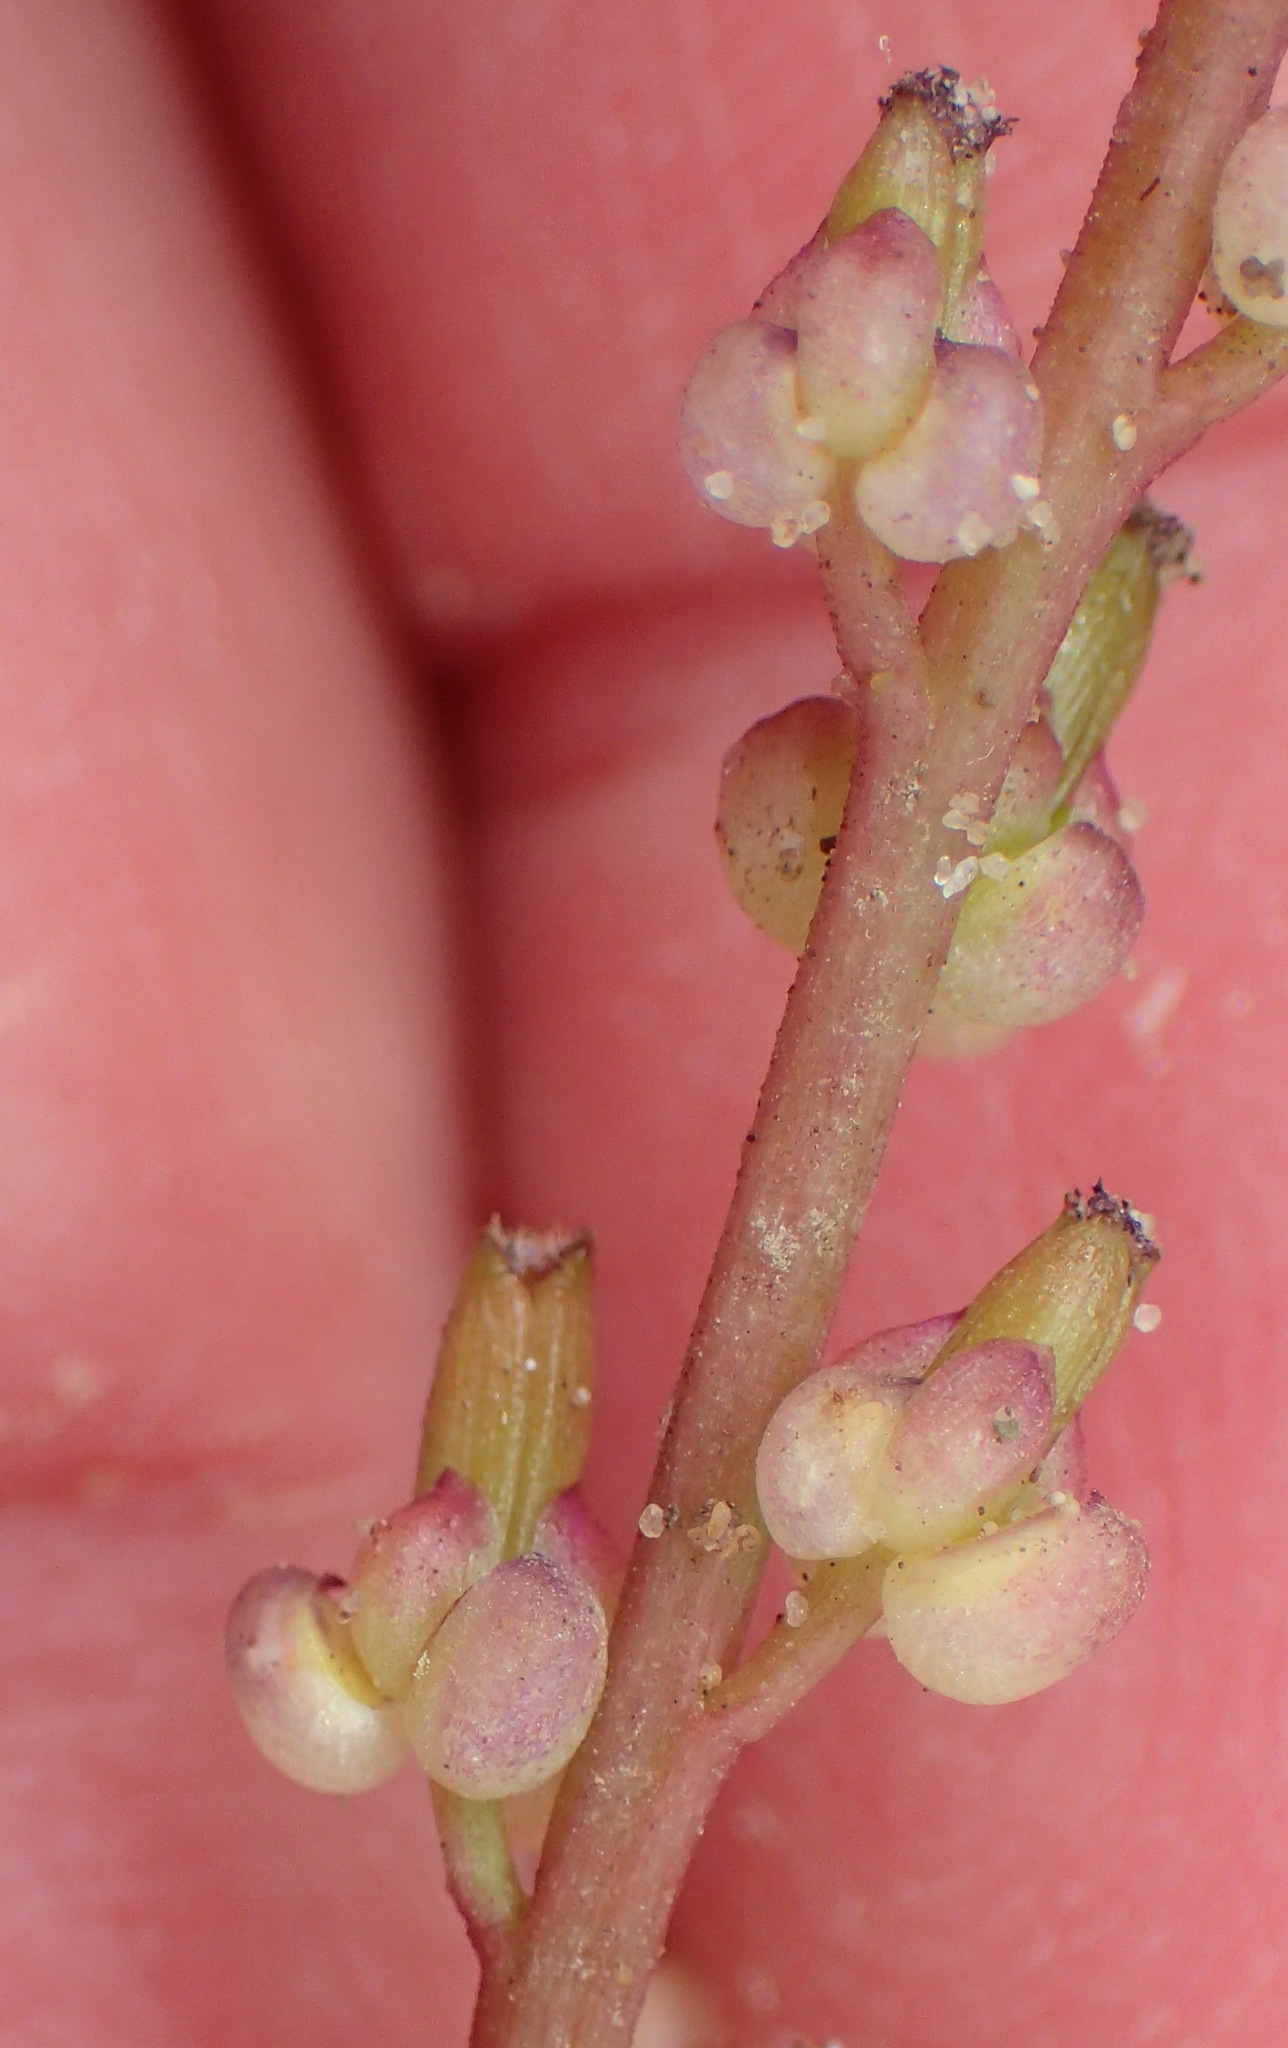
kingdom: Plantae
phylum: Tracheophyta
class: Liliopsida
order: Alismatales
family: Juncaginaceae
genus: Triglochin
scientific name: Triglochin bulbosa
